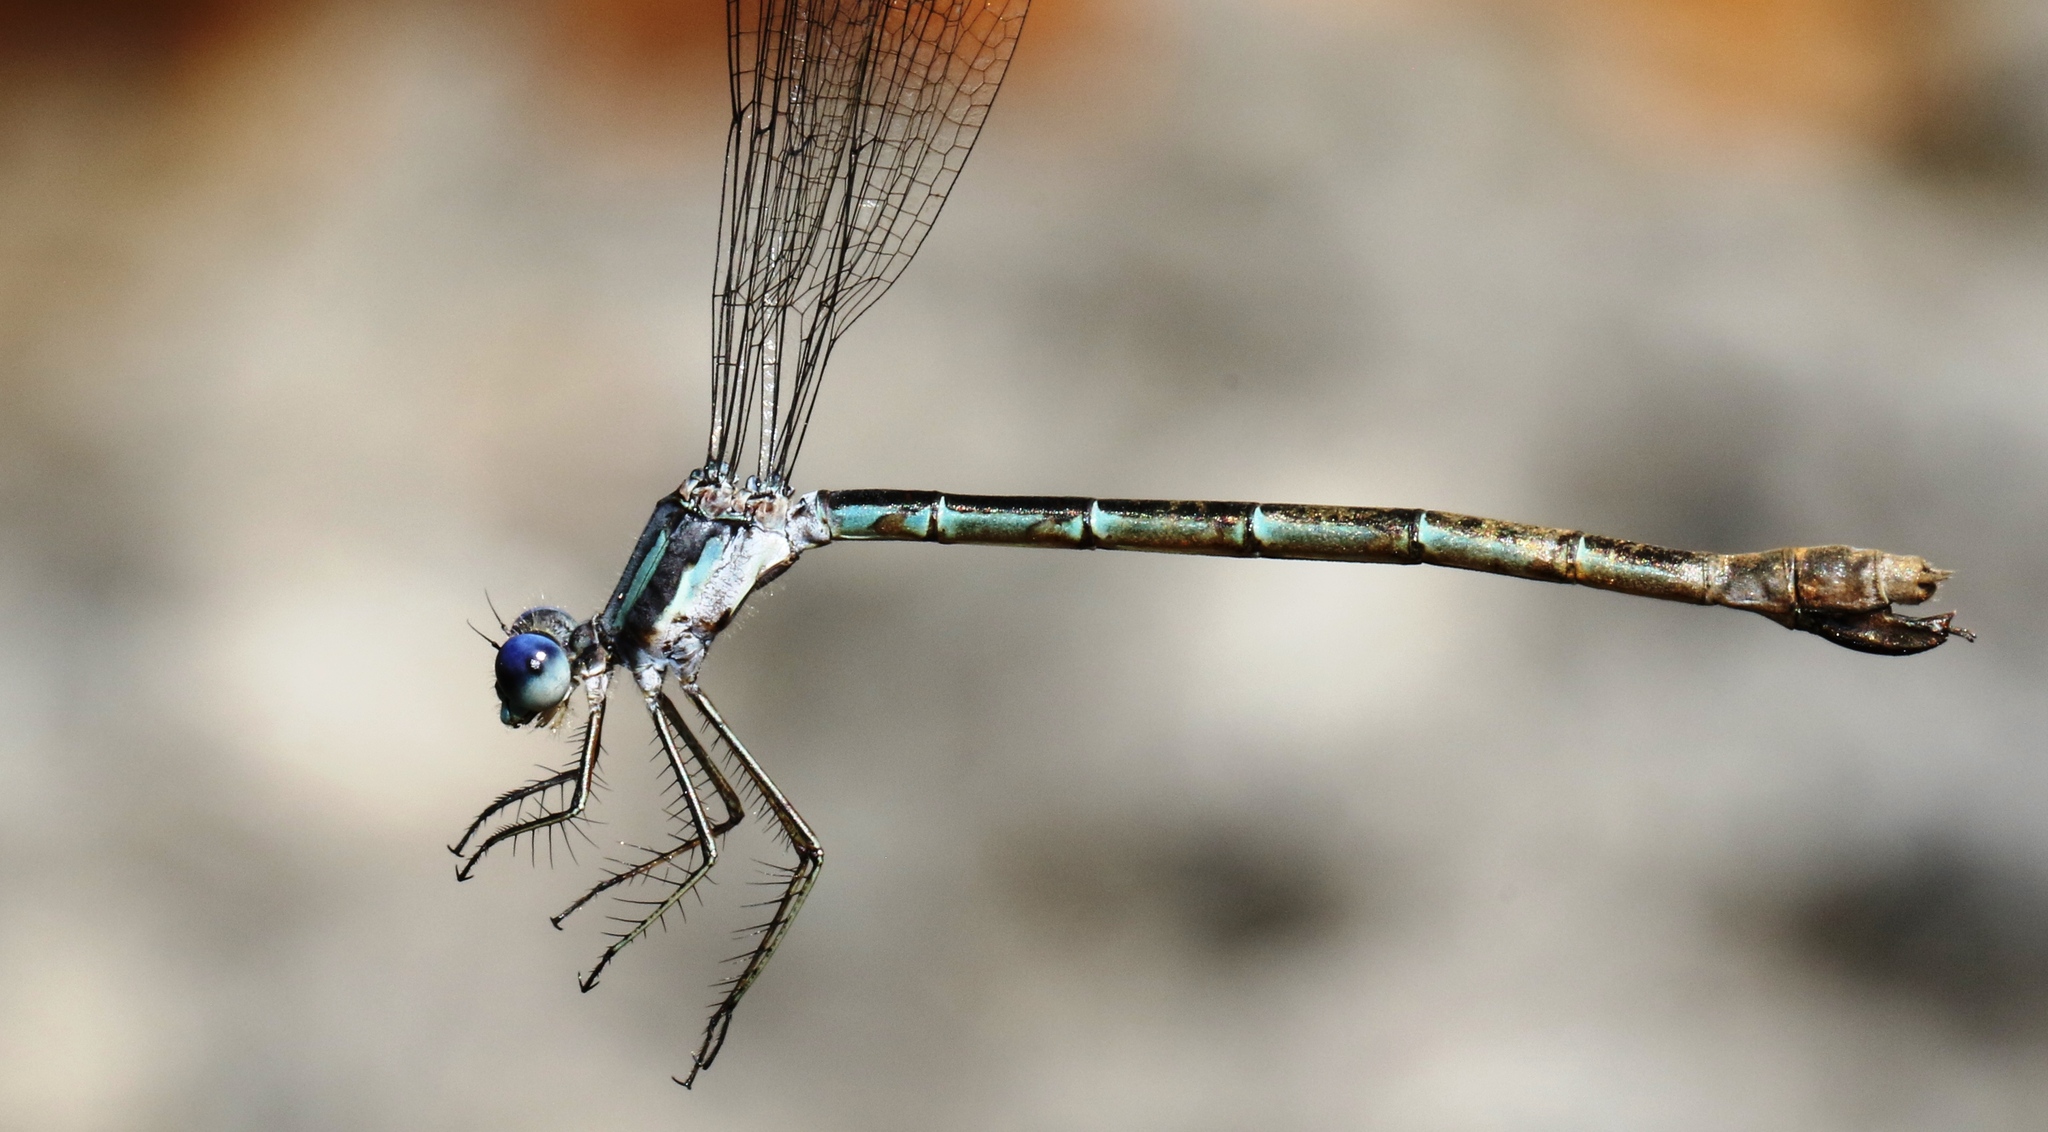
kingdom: Animalia
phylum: Arthropoda
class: Insecta
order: Odonata
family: Lestidae
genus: Lestes
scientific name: Lestes forcipatus
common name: Sweetflag spreadwing
